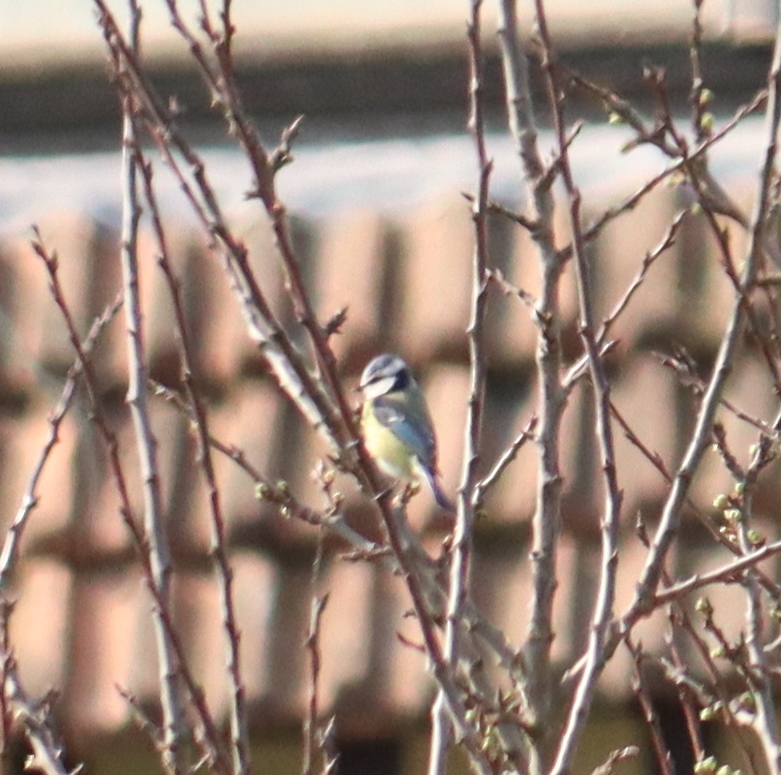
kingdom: Animalia
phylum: Chordata
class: Aves
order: Passeriformes
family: Paridae
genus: Cyanistes
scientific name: Cyanistes caeruleus
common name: Eurasian blue tit
